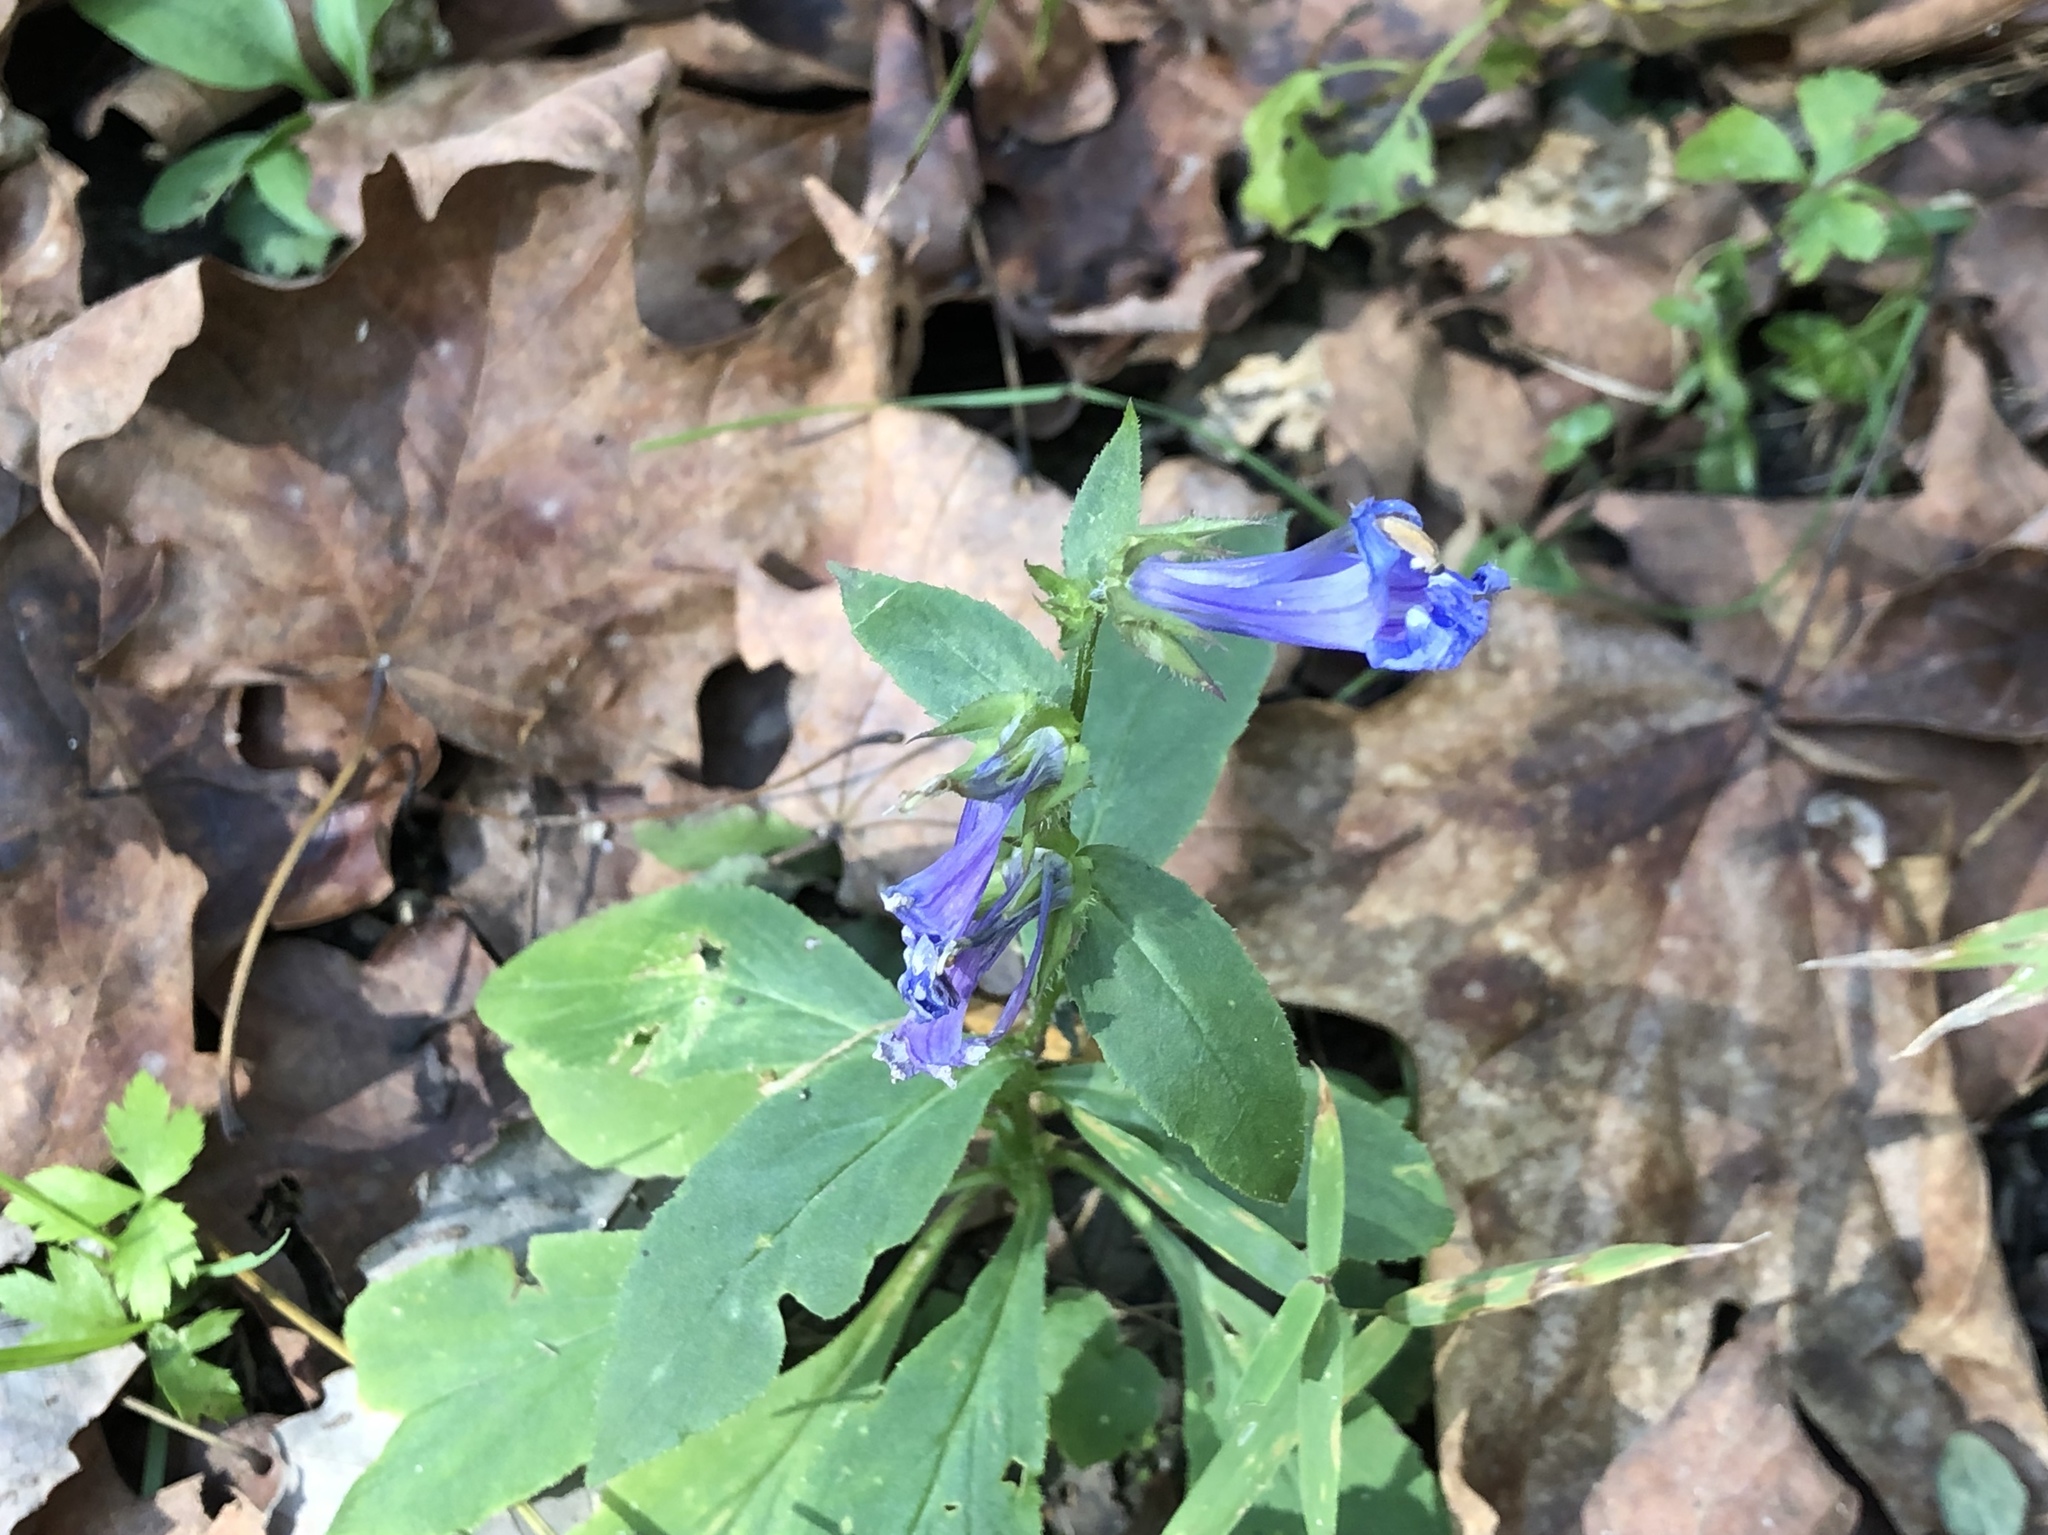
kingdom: Plantae
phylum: Tracheophyta
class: Magnoliopsida
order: Asterales
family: Campanulaceae
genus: Lobelia
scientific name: Lobelia siphilitica
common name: Great lobelia
